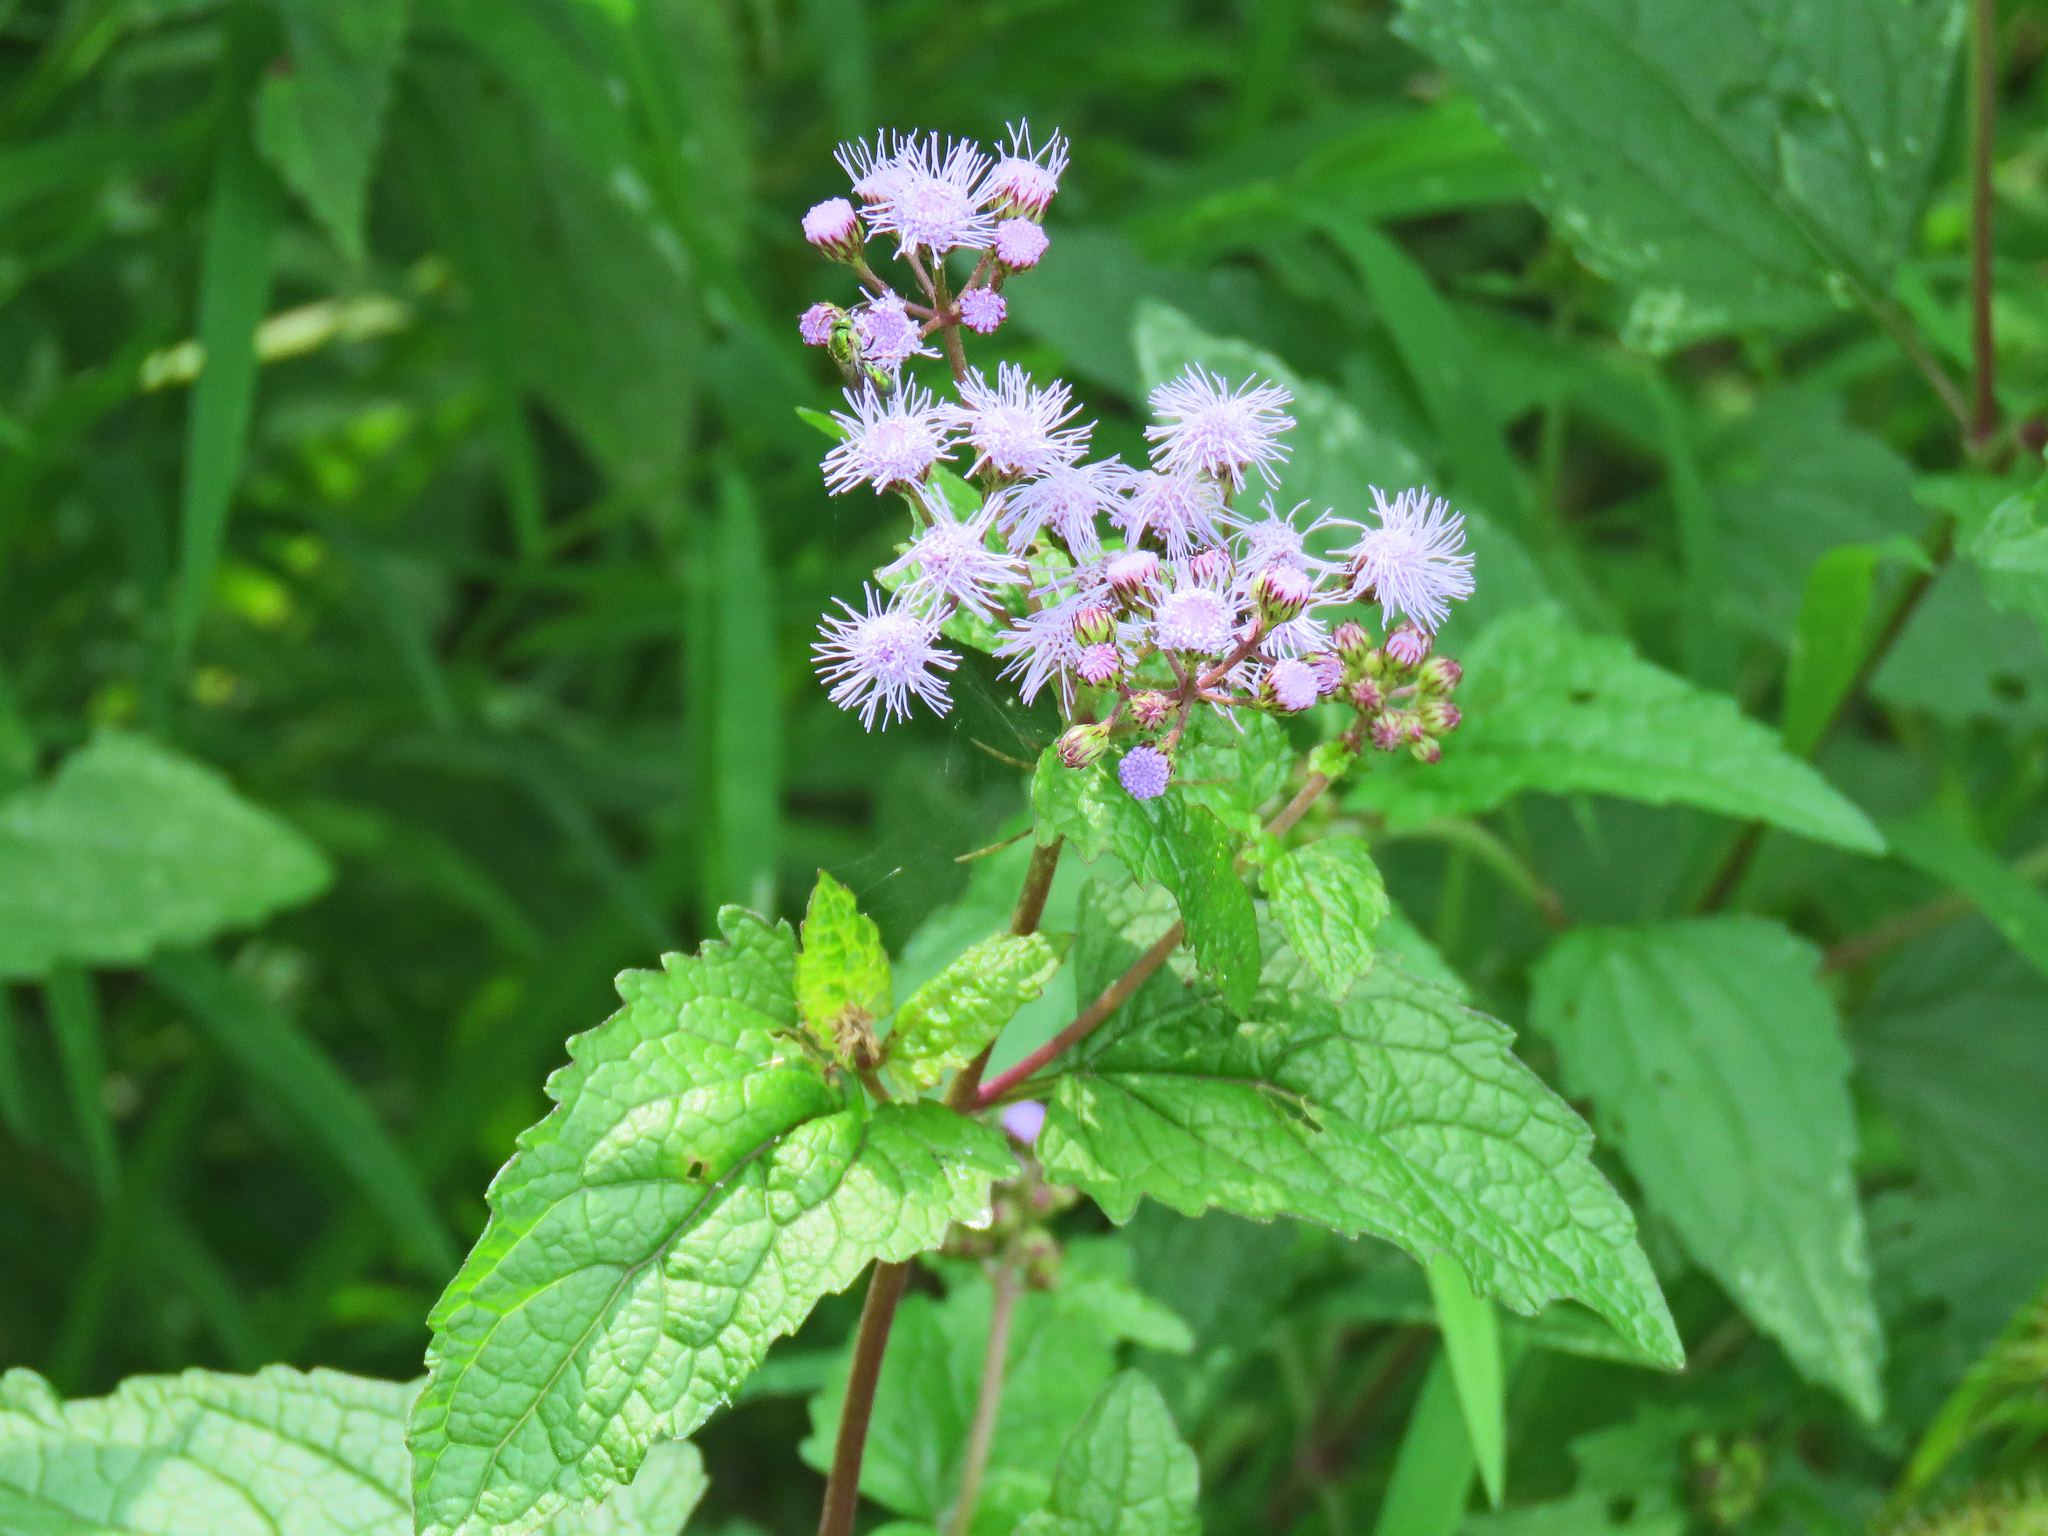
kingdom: Plantae
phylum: Tracheophyta
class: Magnoliopsida
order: Asterales
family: Asteraceae
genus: Conoclinium
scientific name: Conoclinium coelestinum
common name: Blue mistflower
